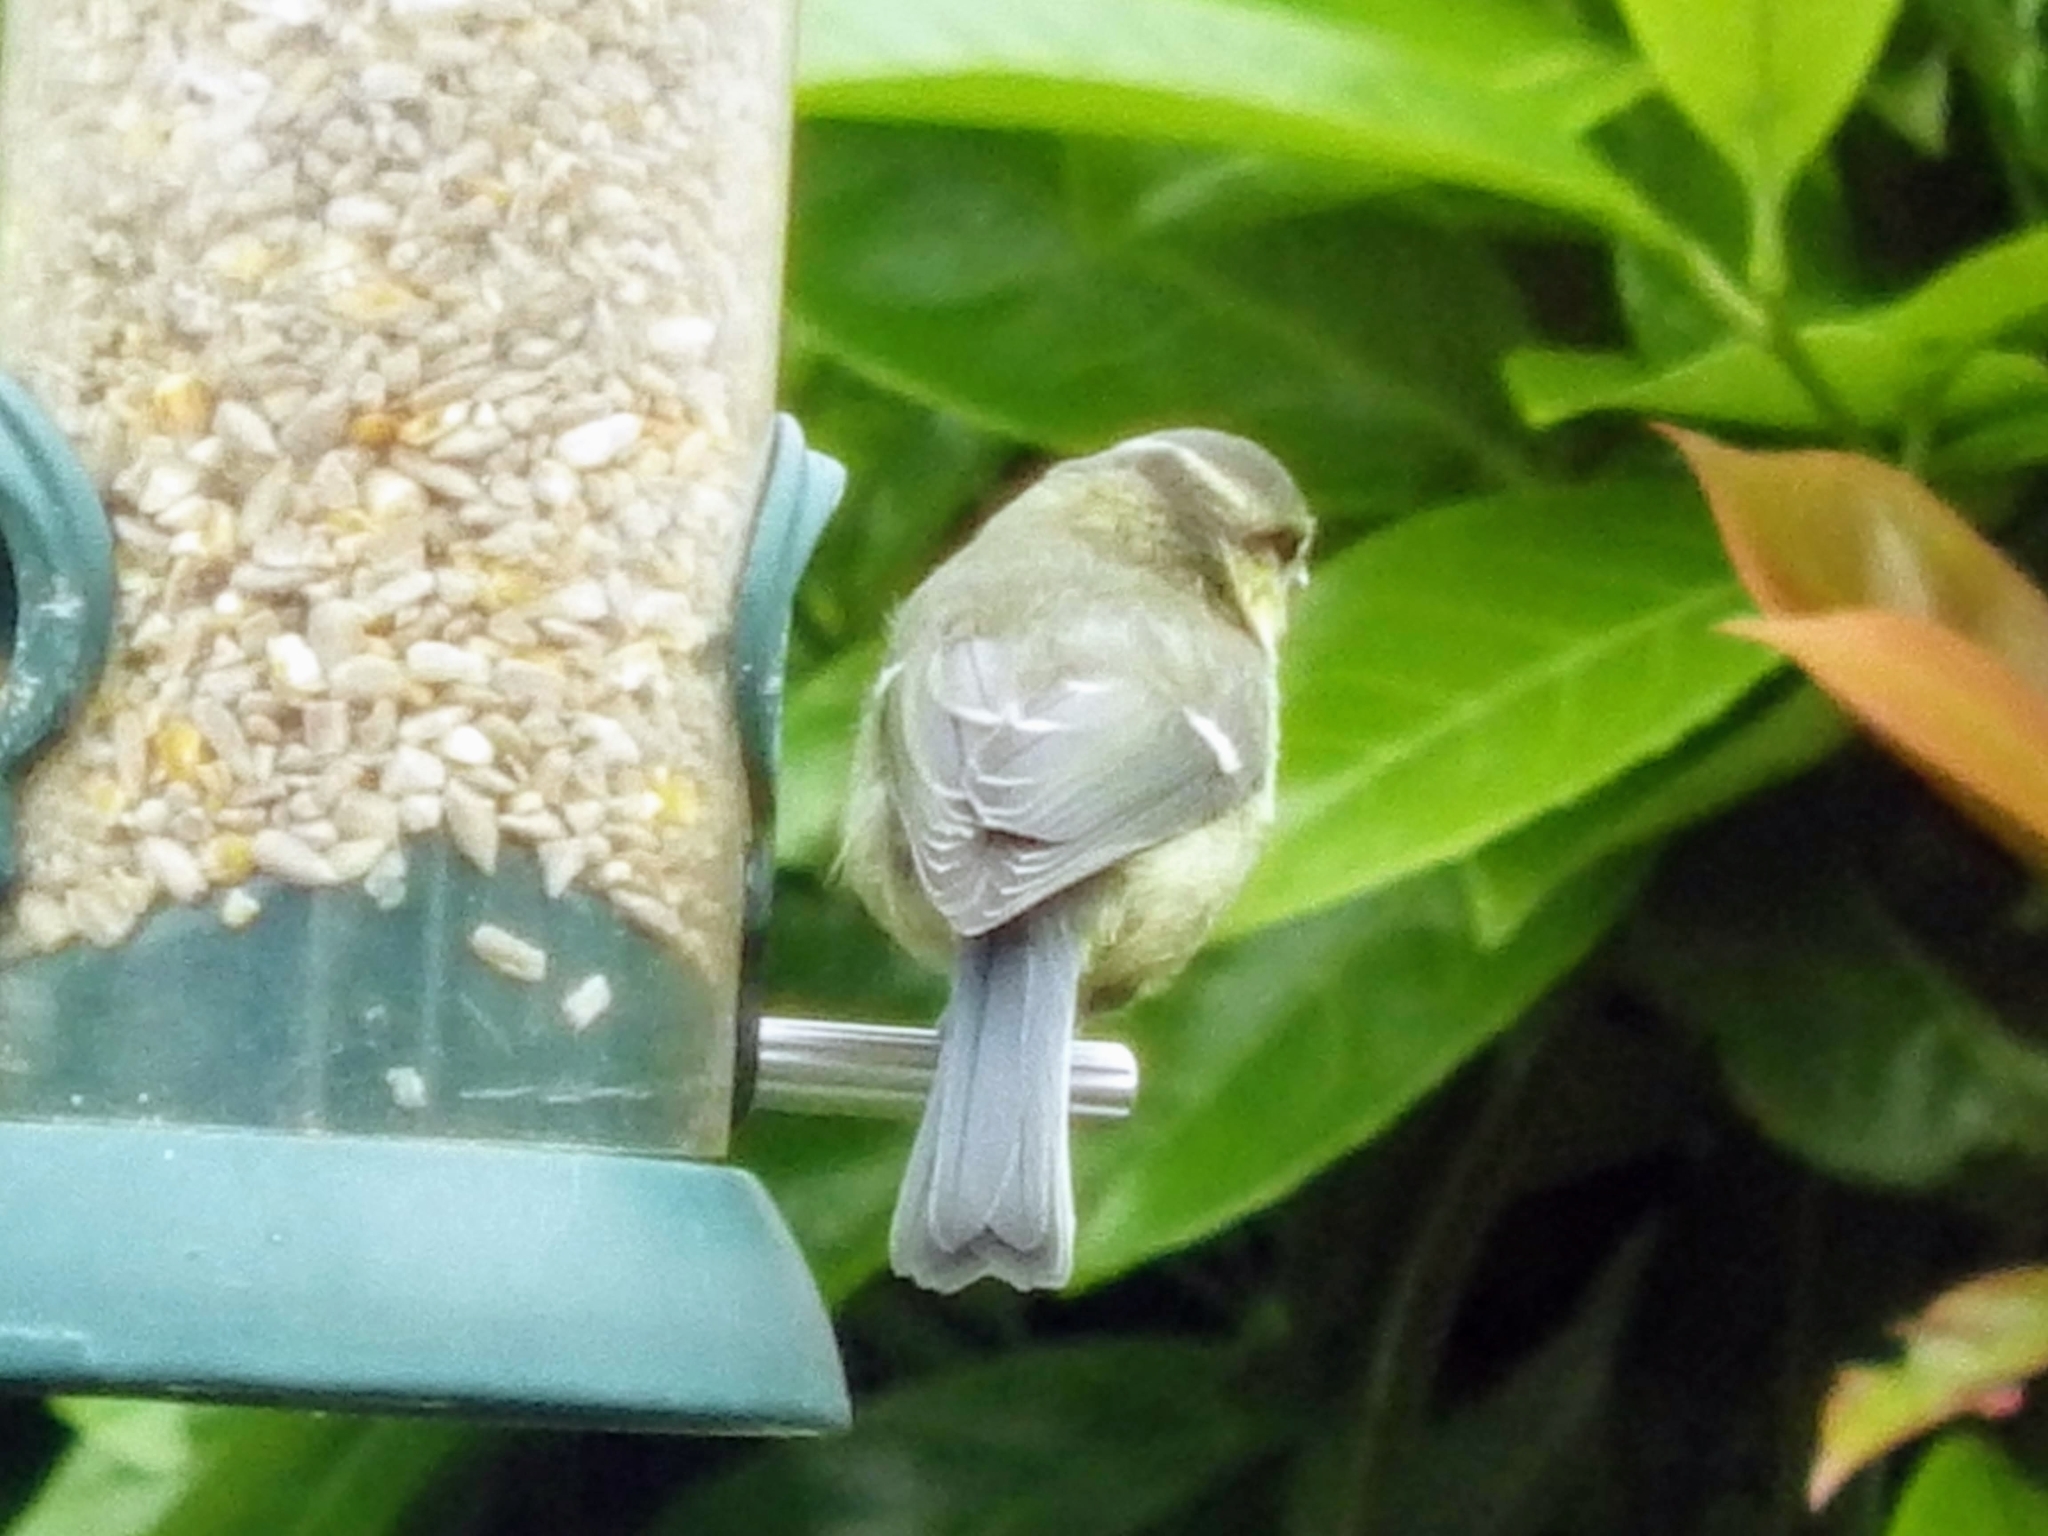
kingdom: Animalia
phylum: Chordata
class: Aves
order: Passeriformes
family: Paridae
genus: Cyanistes
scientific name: Cyanistes caeruleus
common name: Eurasian blue tit
